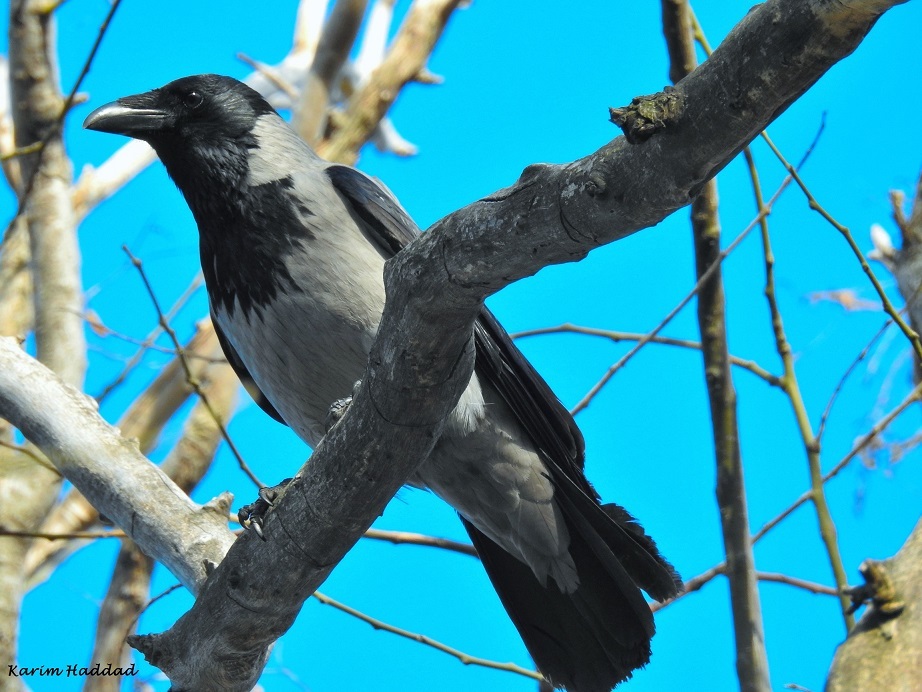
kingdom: Animalia
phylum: Chordata
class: Aves
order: Passeriformes
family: Corvidae
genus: Corvus
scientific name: Corvus cornix
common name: Hooded crow
